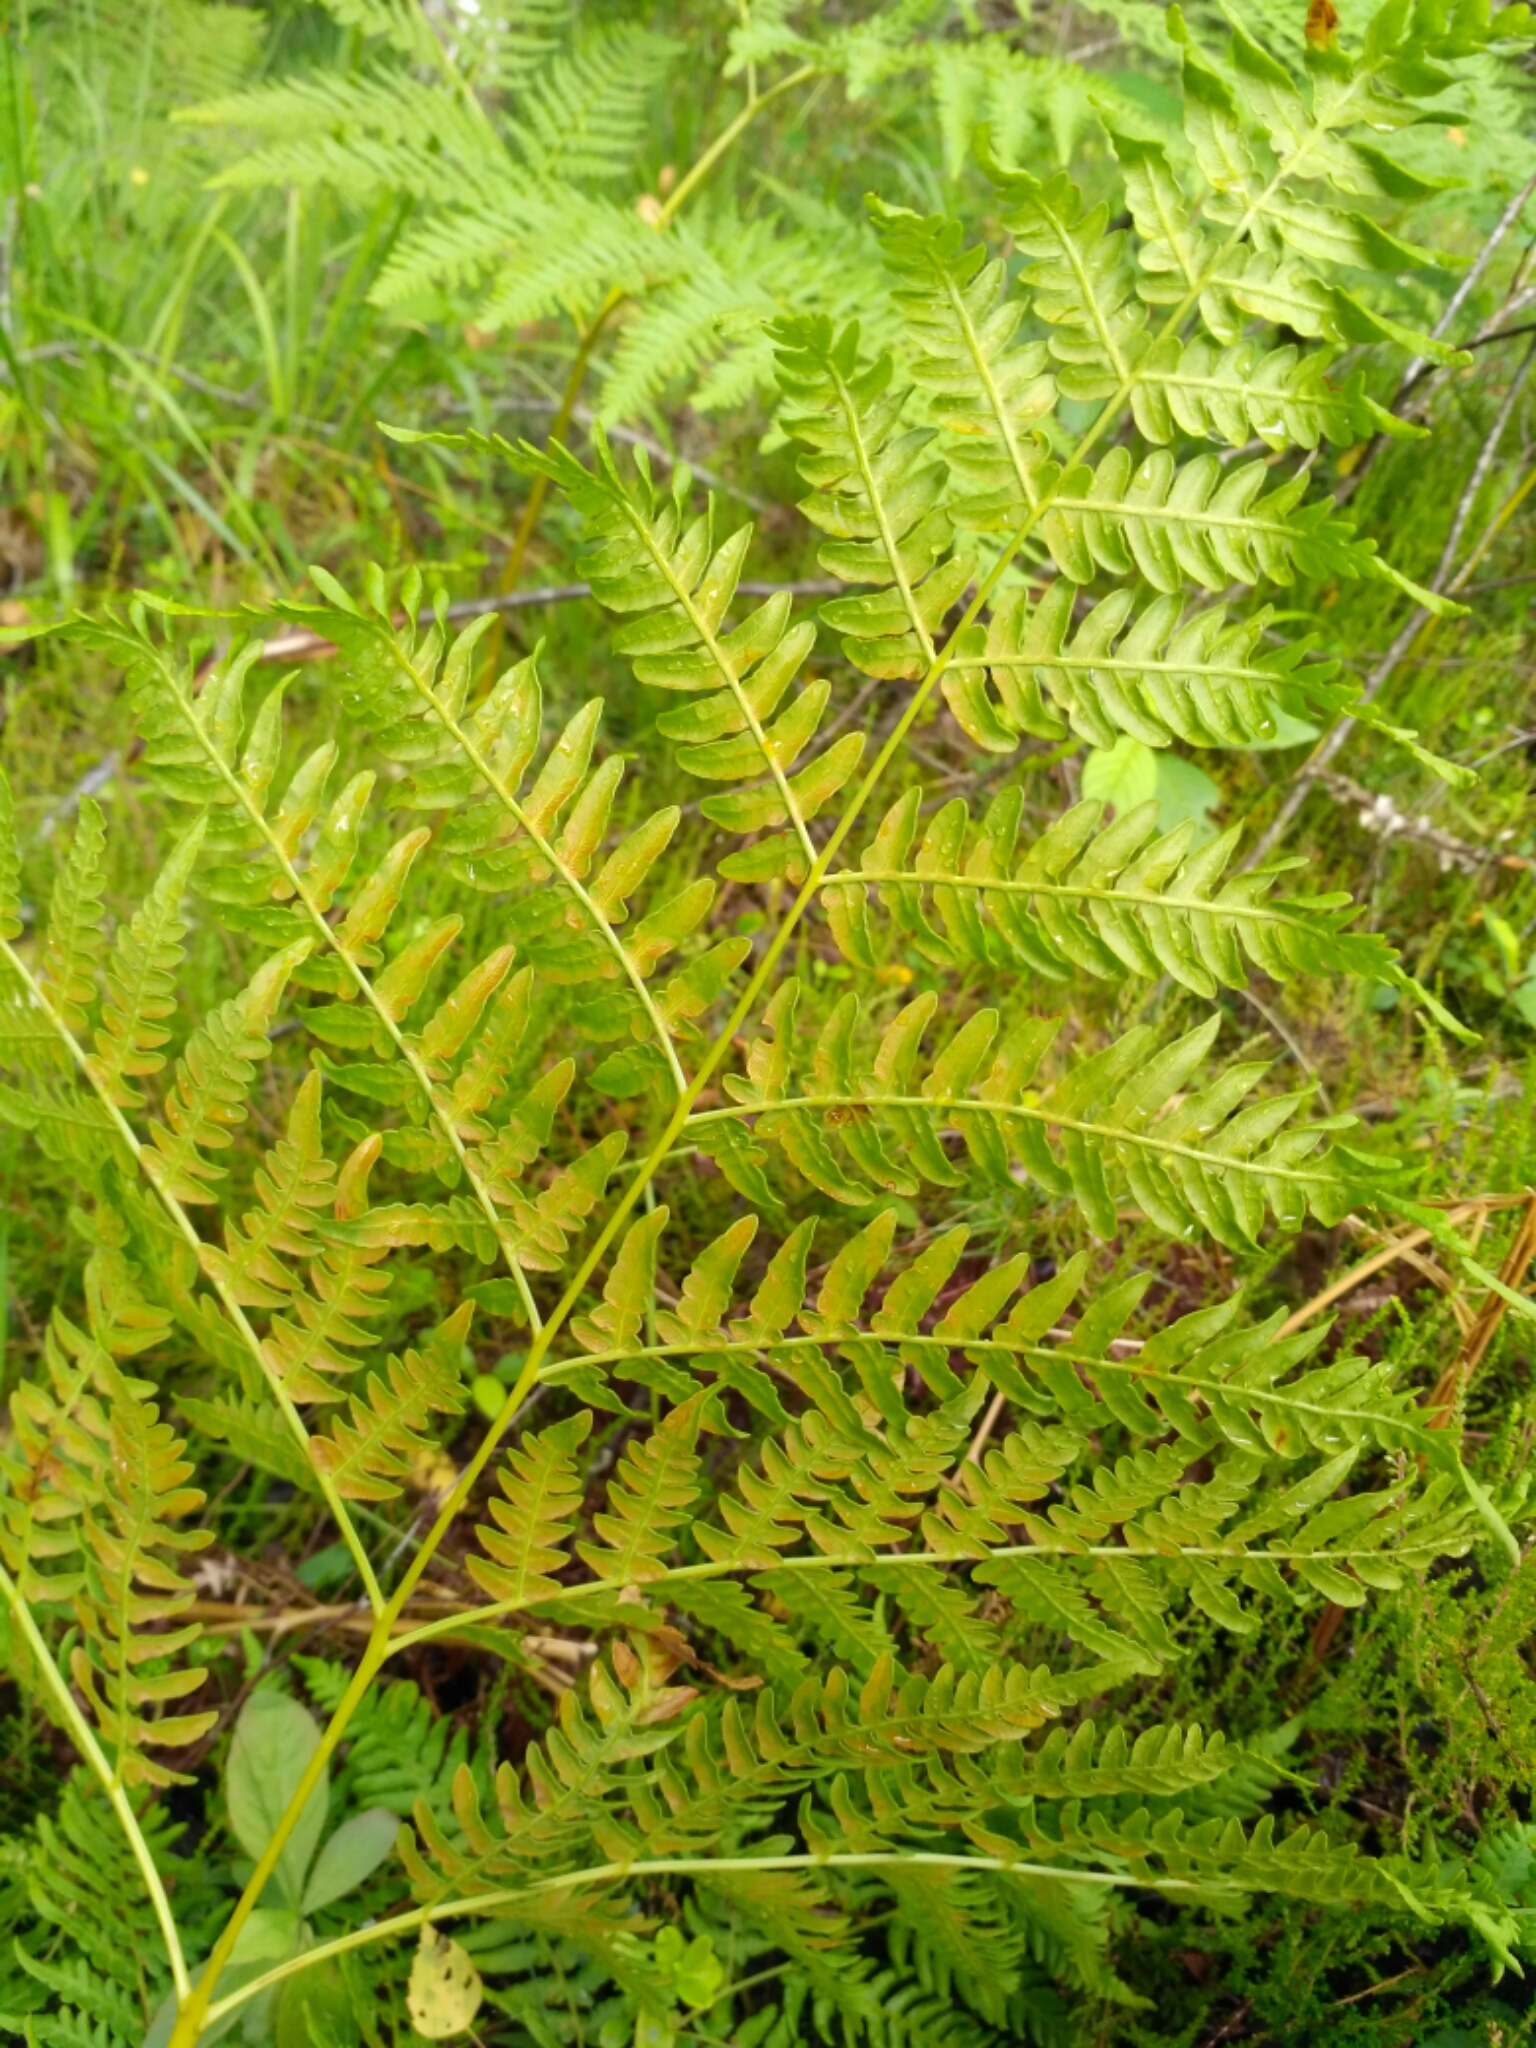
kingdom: Plantae
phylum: Tracheophyta
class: Polypodiopsida
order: Polypodiales
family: Dennstaedtiaceae
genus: Pteridium
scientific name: Pteridium aquilinum
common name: Bracken
